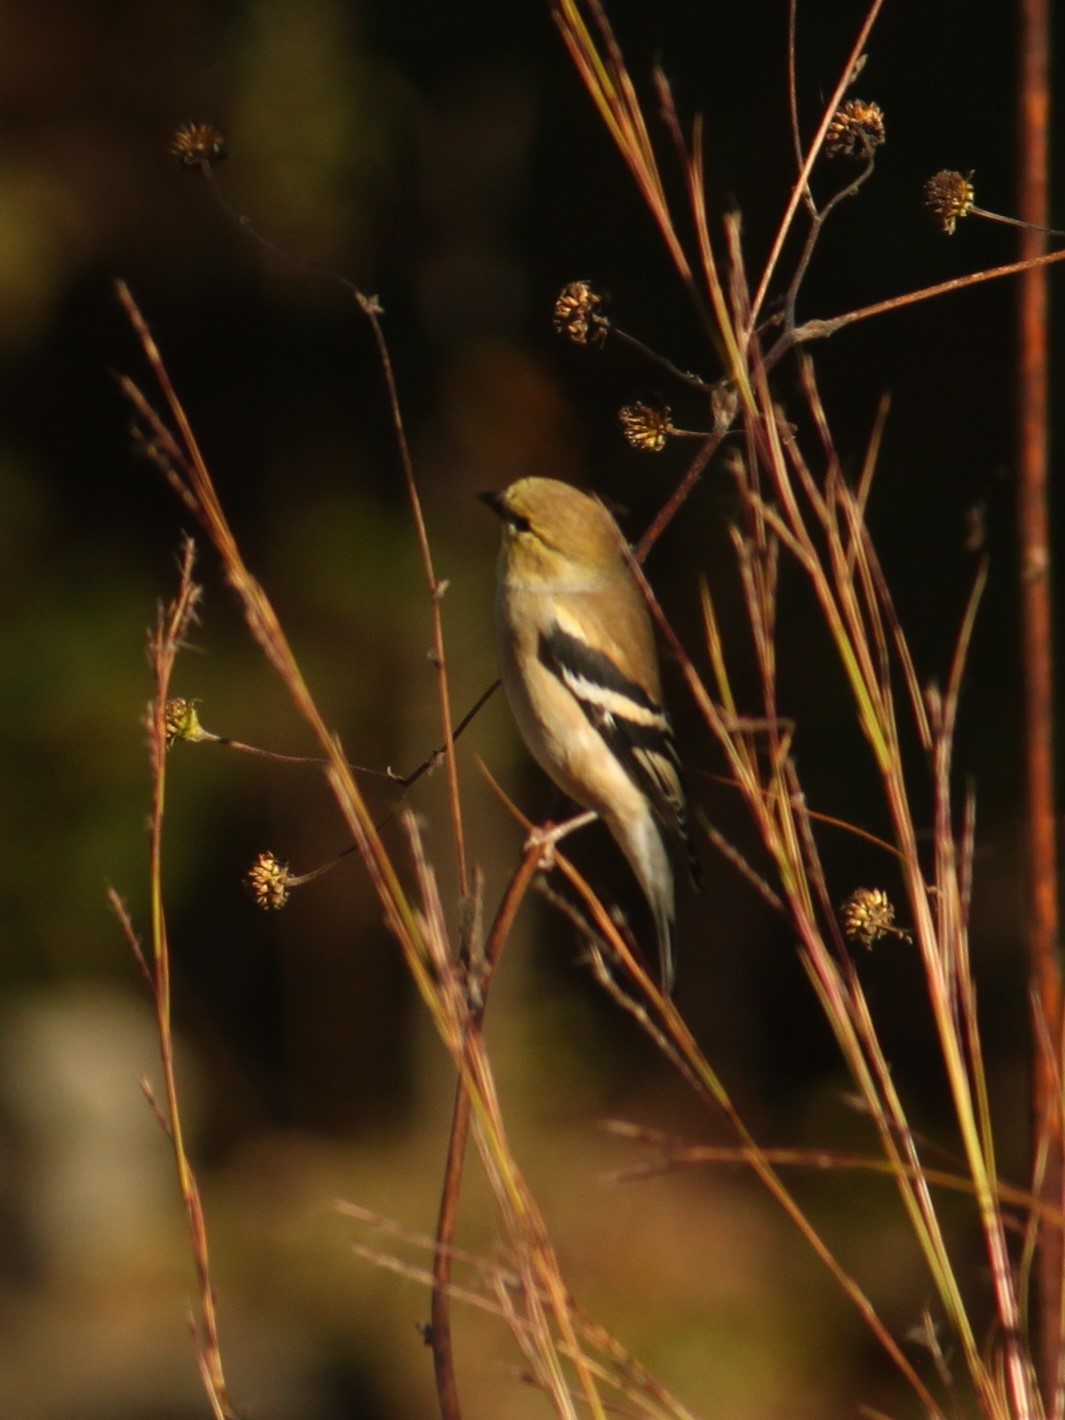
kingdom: Animalia
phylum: Chordata
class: Aves
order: Passeriformes
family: Fringillidae
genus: Spinus
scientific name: Spinus tristis
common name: American goldfinch
